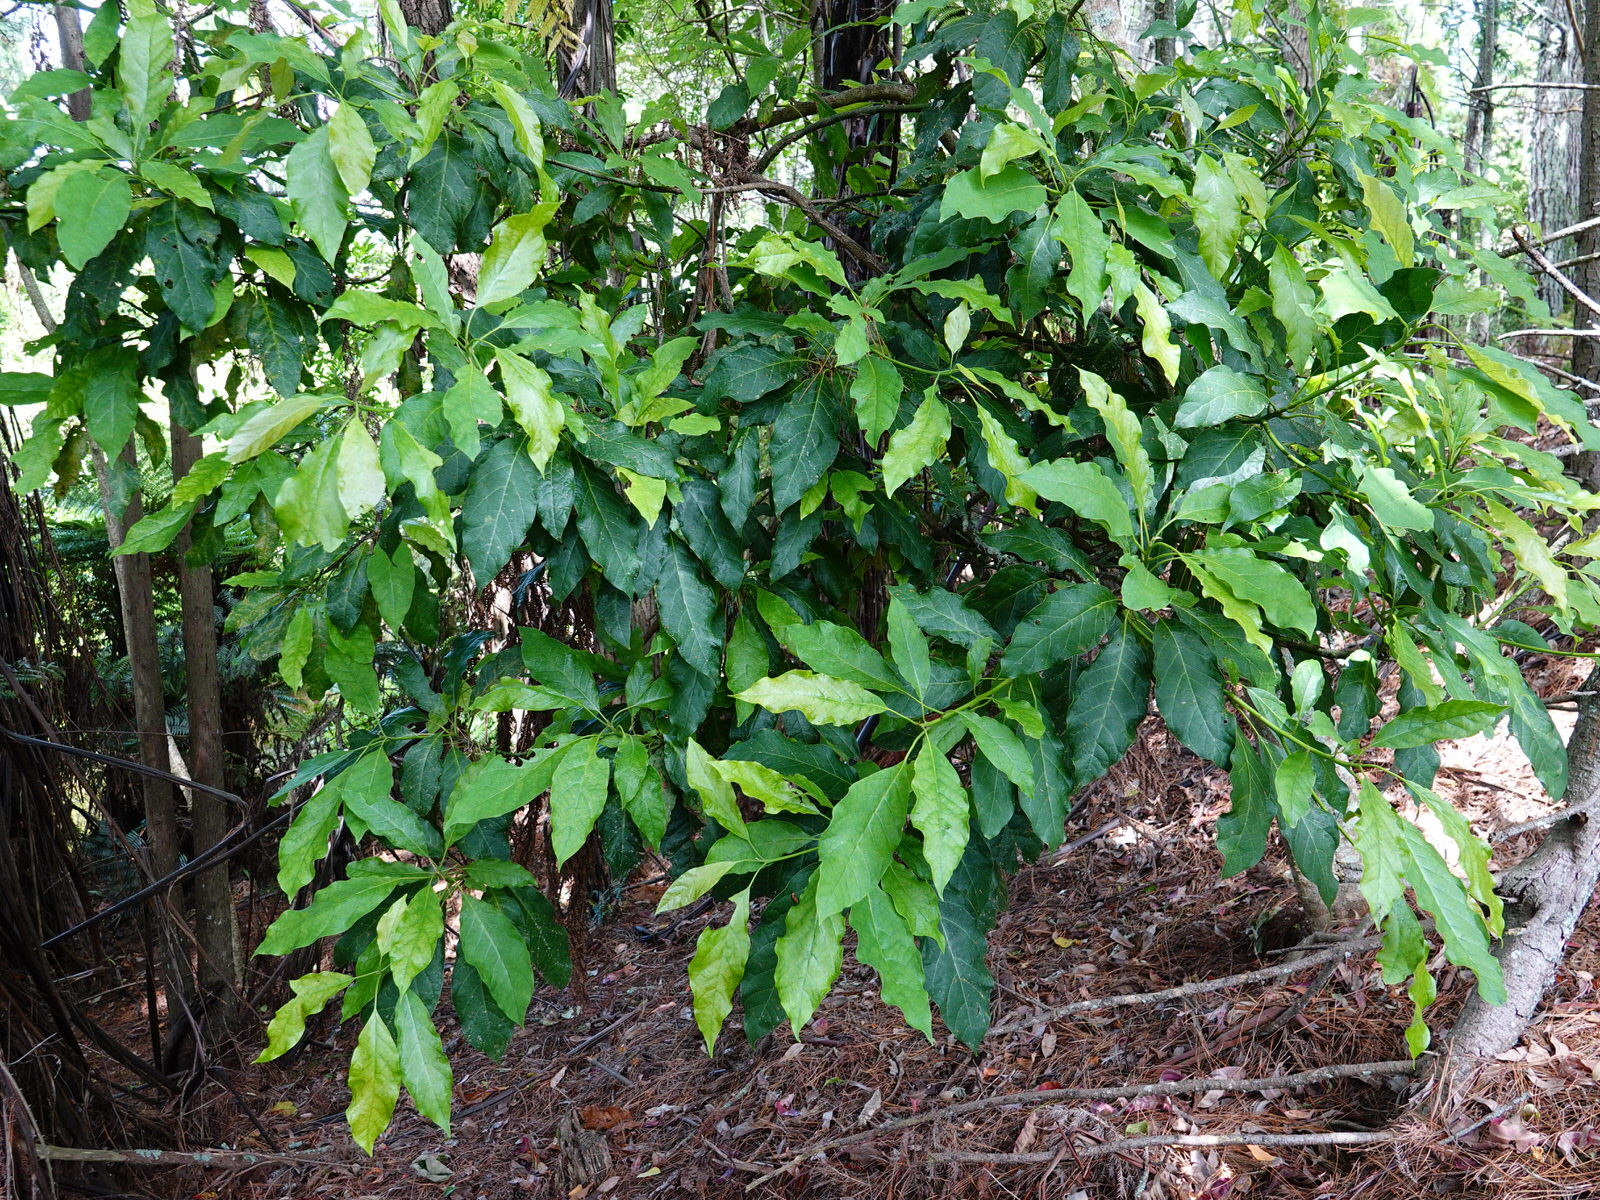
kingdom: Plantae
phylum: Tracheophyta
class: Magnoliopsida
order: Laurales
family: Lauraceae
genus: Persea
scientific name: Persea americana
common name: Avocado
